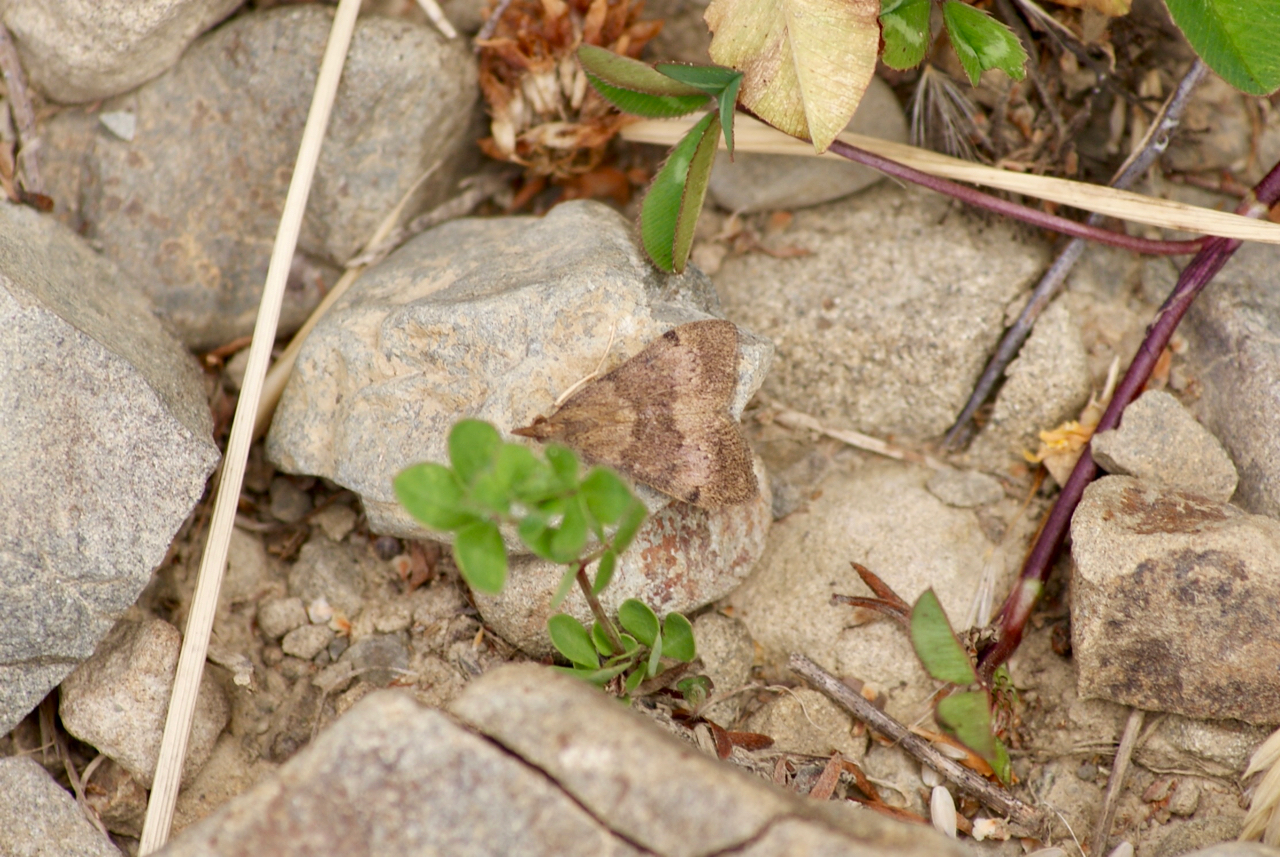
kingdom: Animalia
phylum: Arthropoda
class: Insecta
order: Lepidoptera
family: Crambidae
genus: Uresiphita
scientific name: Uresiphita
